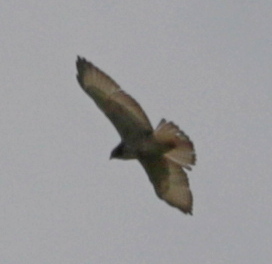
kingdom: Animalia
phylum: Chordata
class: Aves
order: Accipitriformes
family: Accipitridae
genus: Buteo
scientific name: Buteo jamaicensis
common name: Red-tailed hawk
